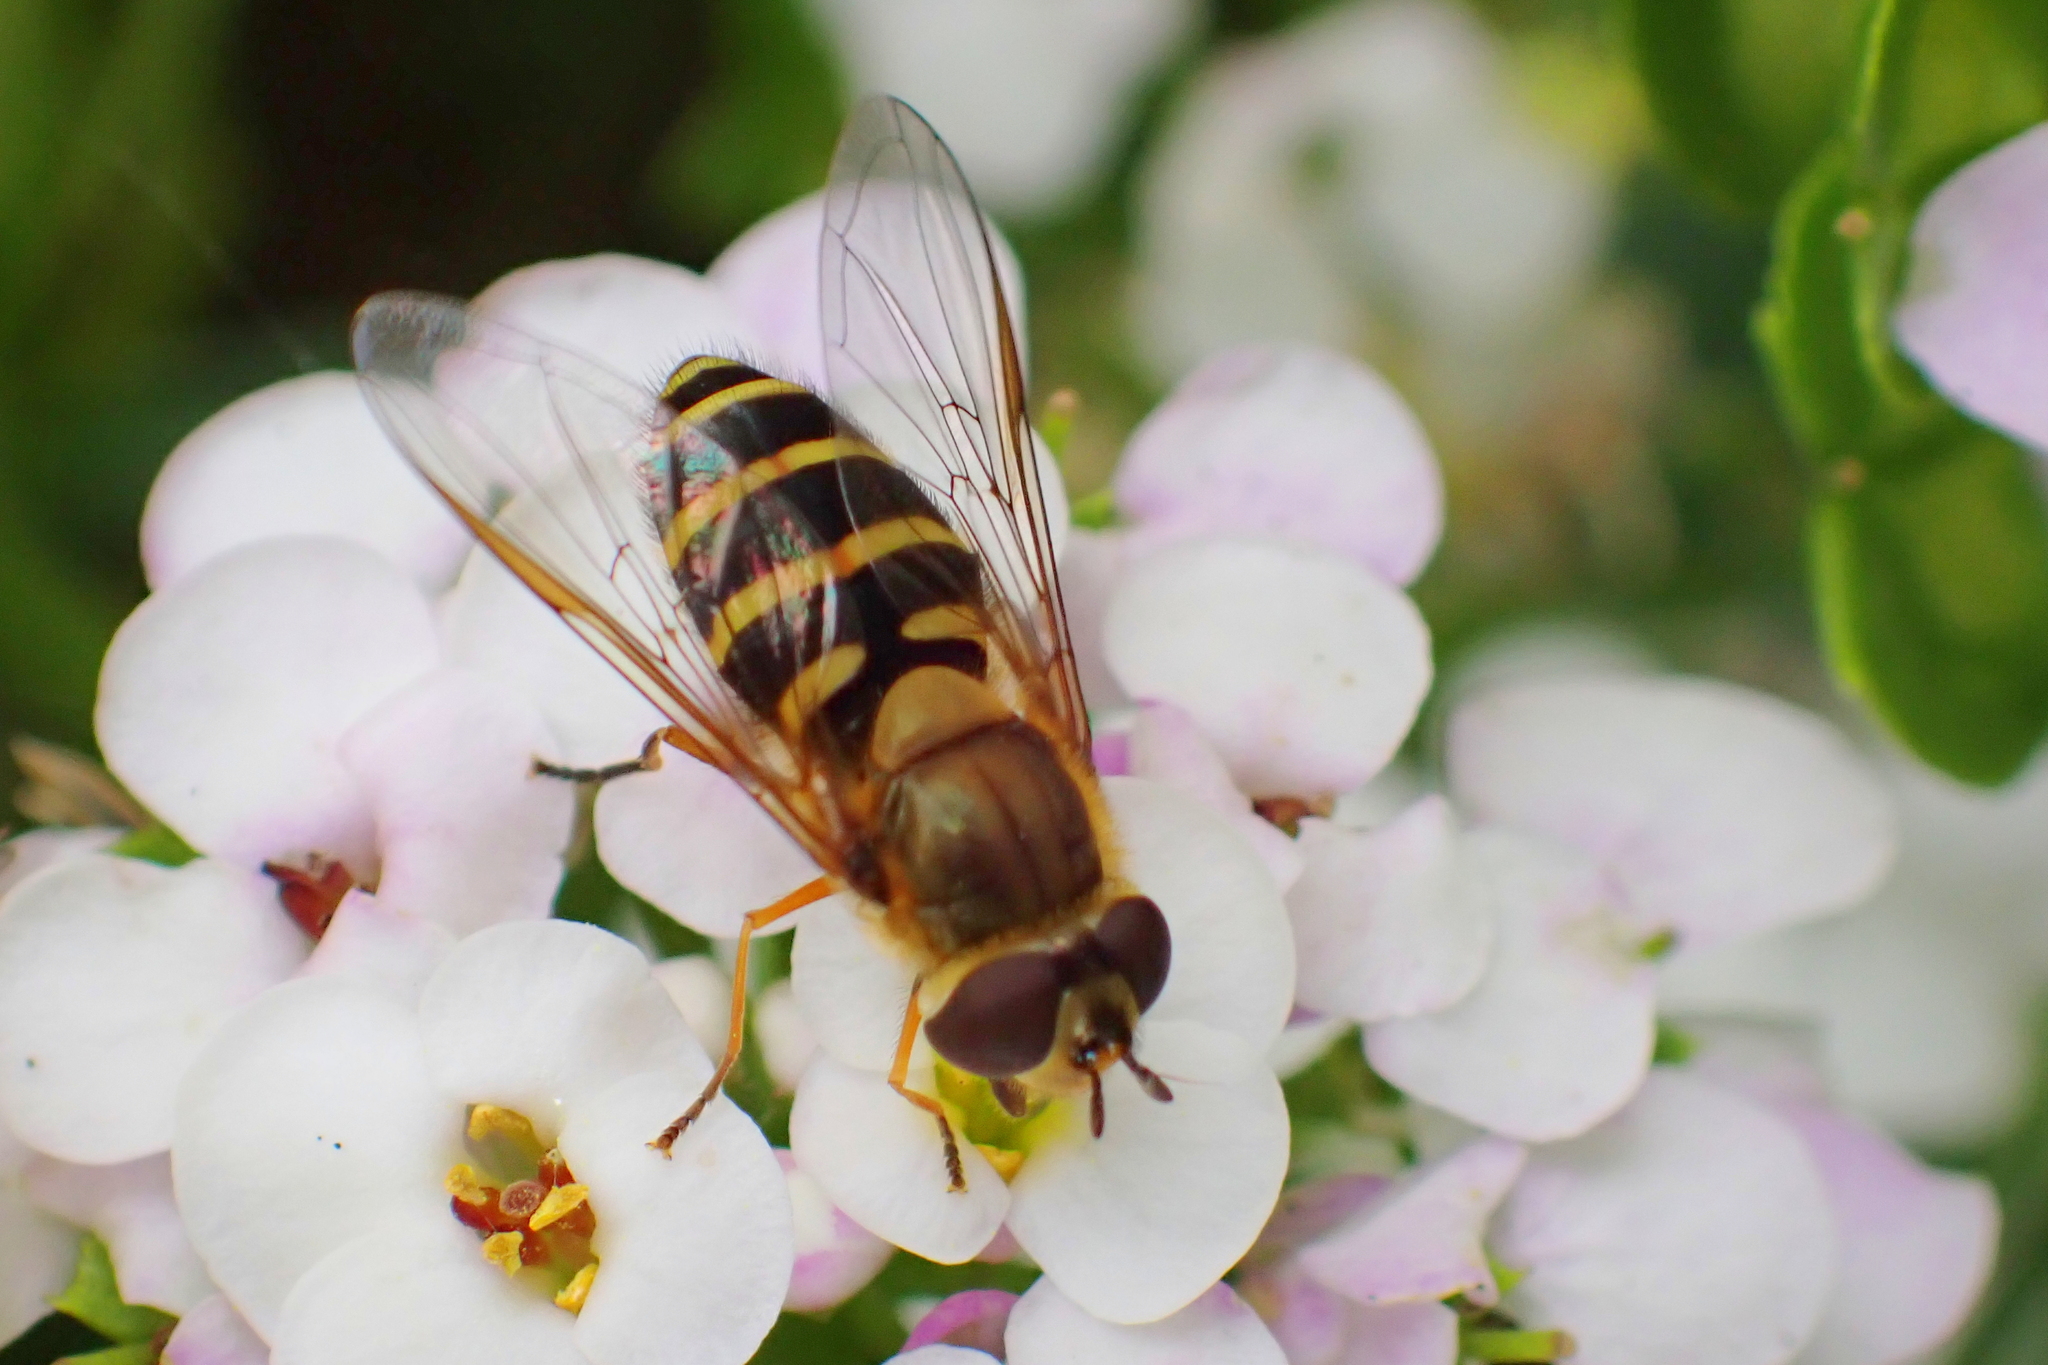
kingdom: Animalia
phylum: Arthropoda
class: Insecta
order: Diptera
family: Syrphidae
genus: Syrphus
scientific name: Syrphus
